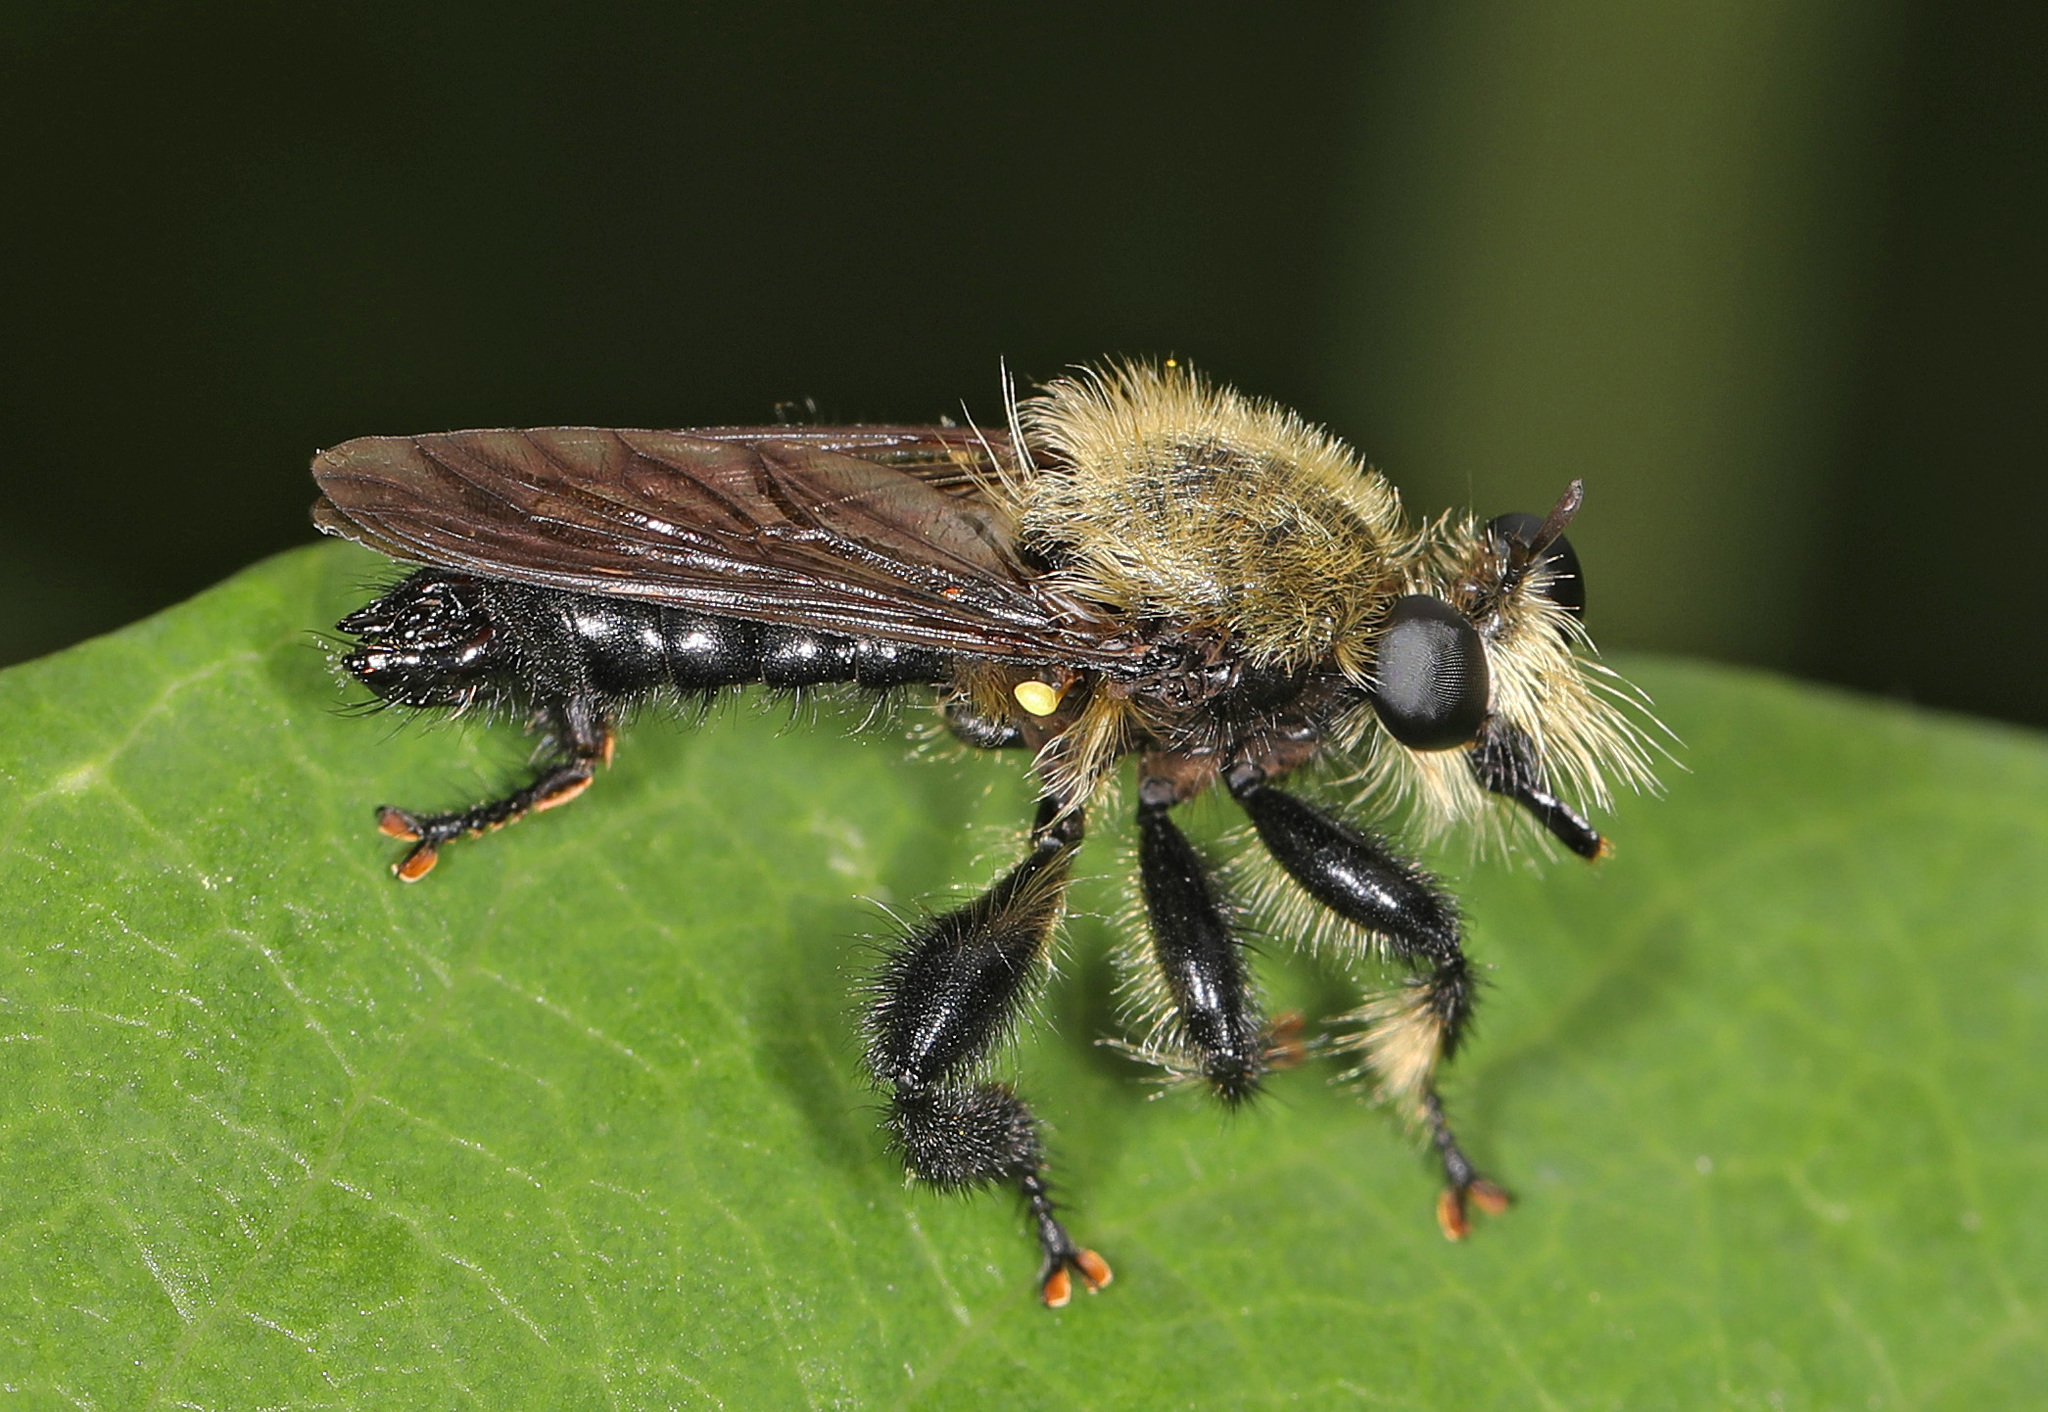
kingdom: Animalia
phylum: Arthropoda
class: Insecta
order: Diptera
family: Asilidae
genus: Laphria
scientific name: Laphria flavicollis
